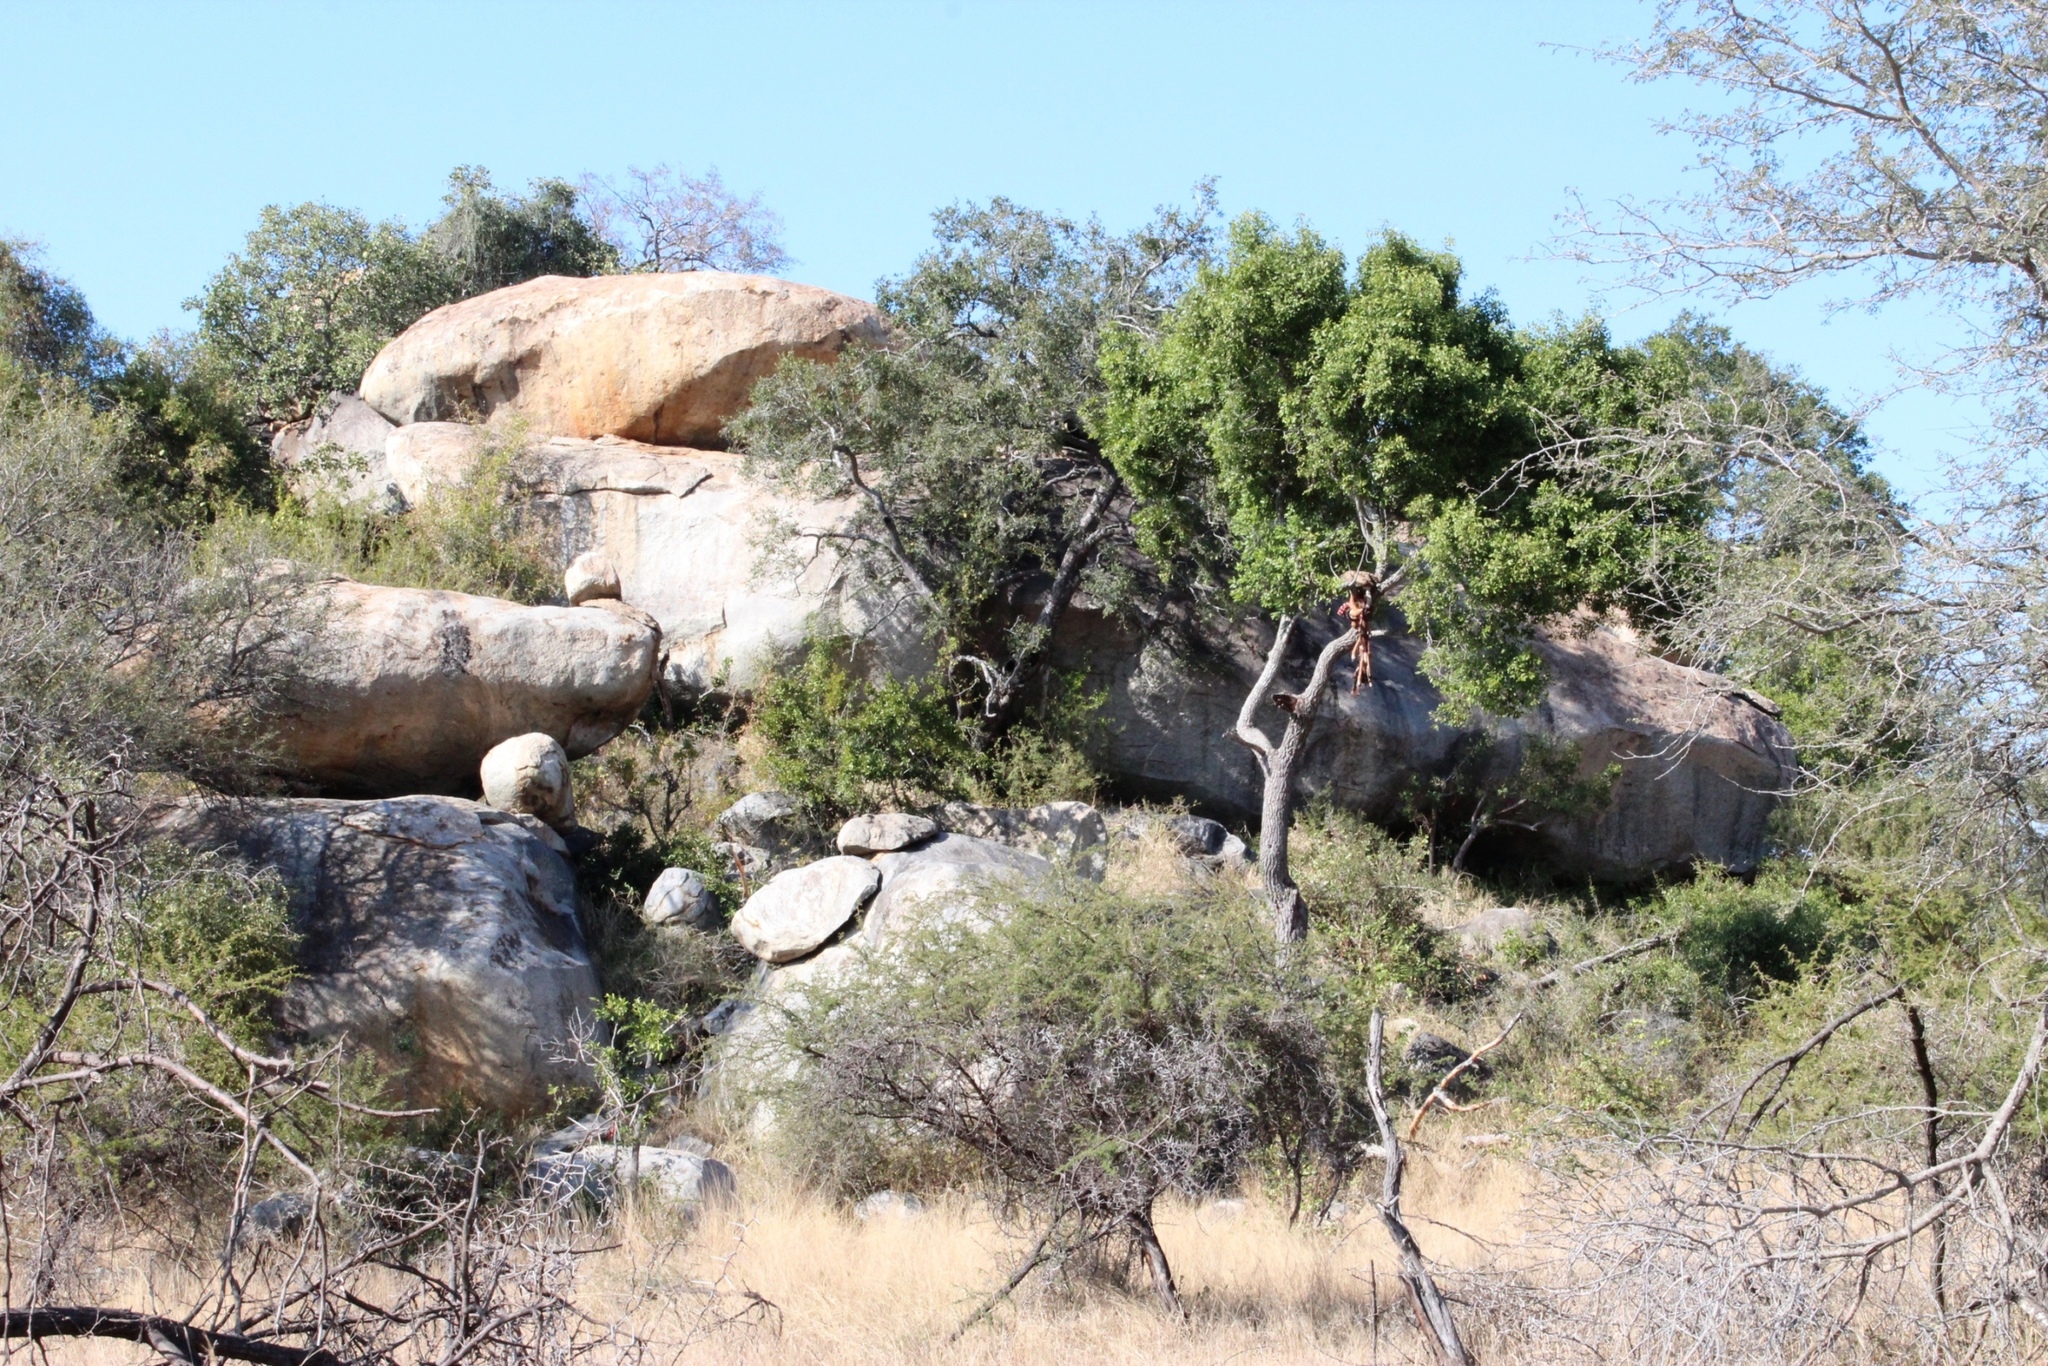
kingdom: Animalia
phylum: Chordata
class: Mammalia
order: Artiodactyla
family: Bovidae
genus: Aepyceros
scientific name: Aepyceros melampus
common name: Impala
